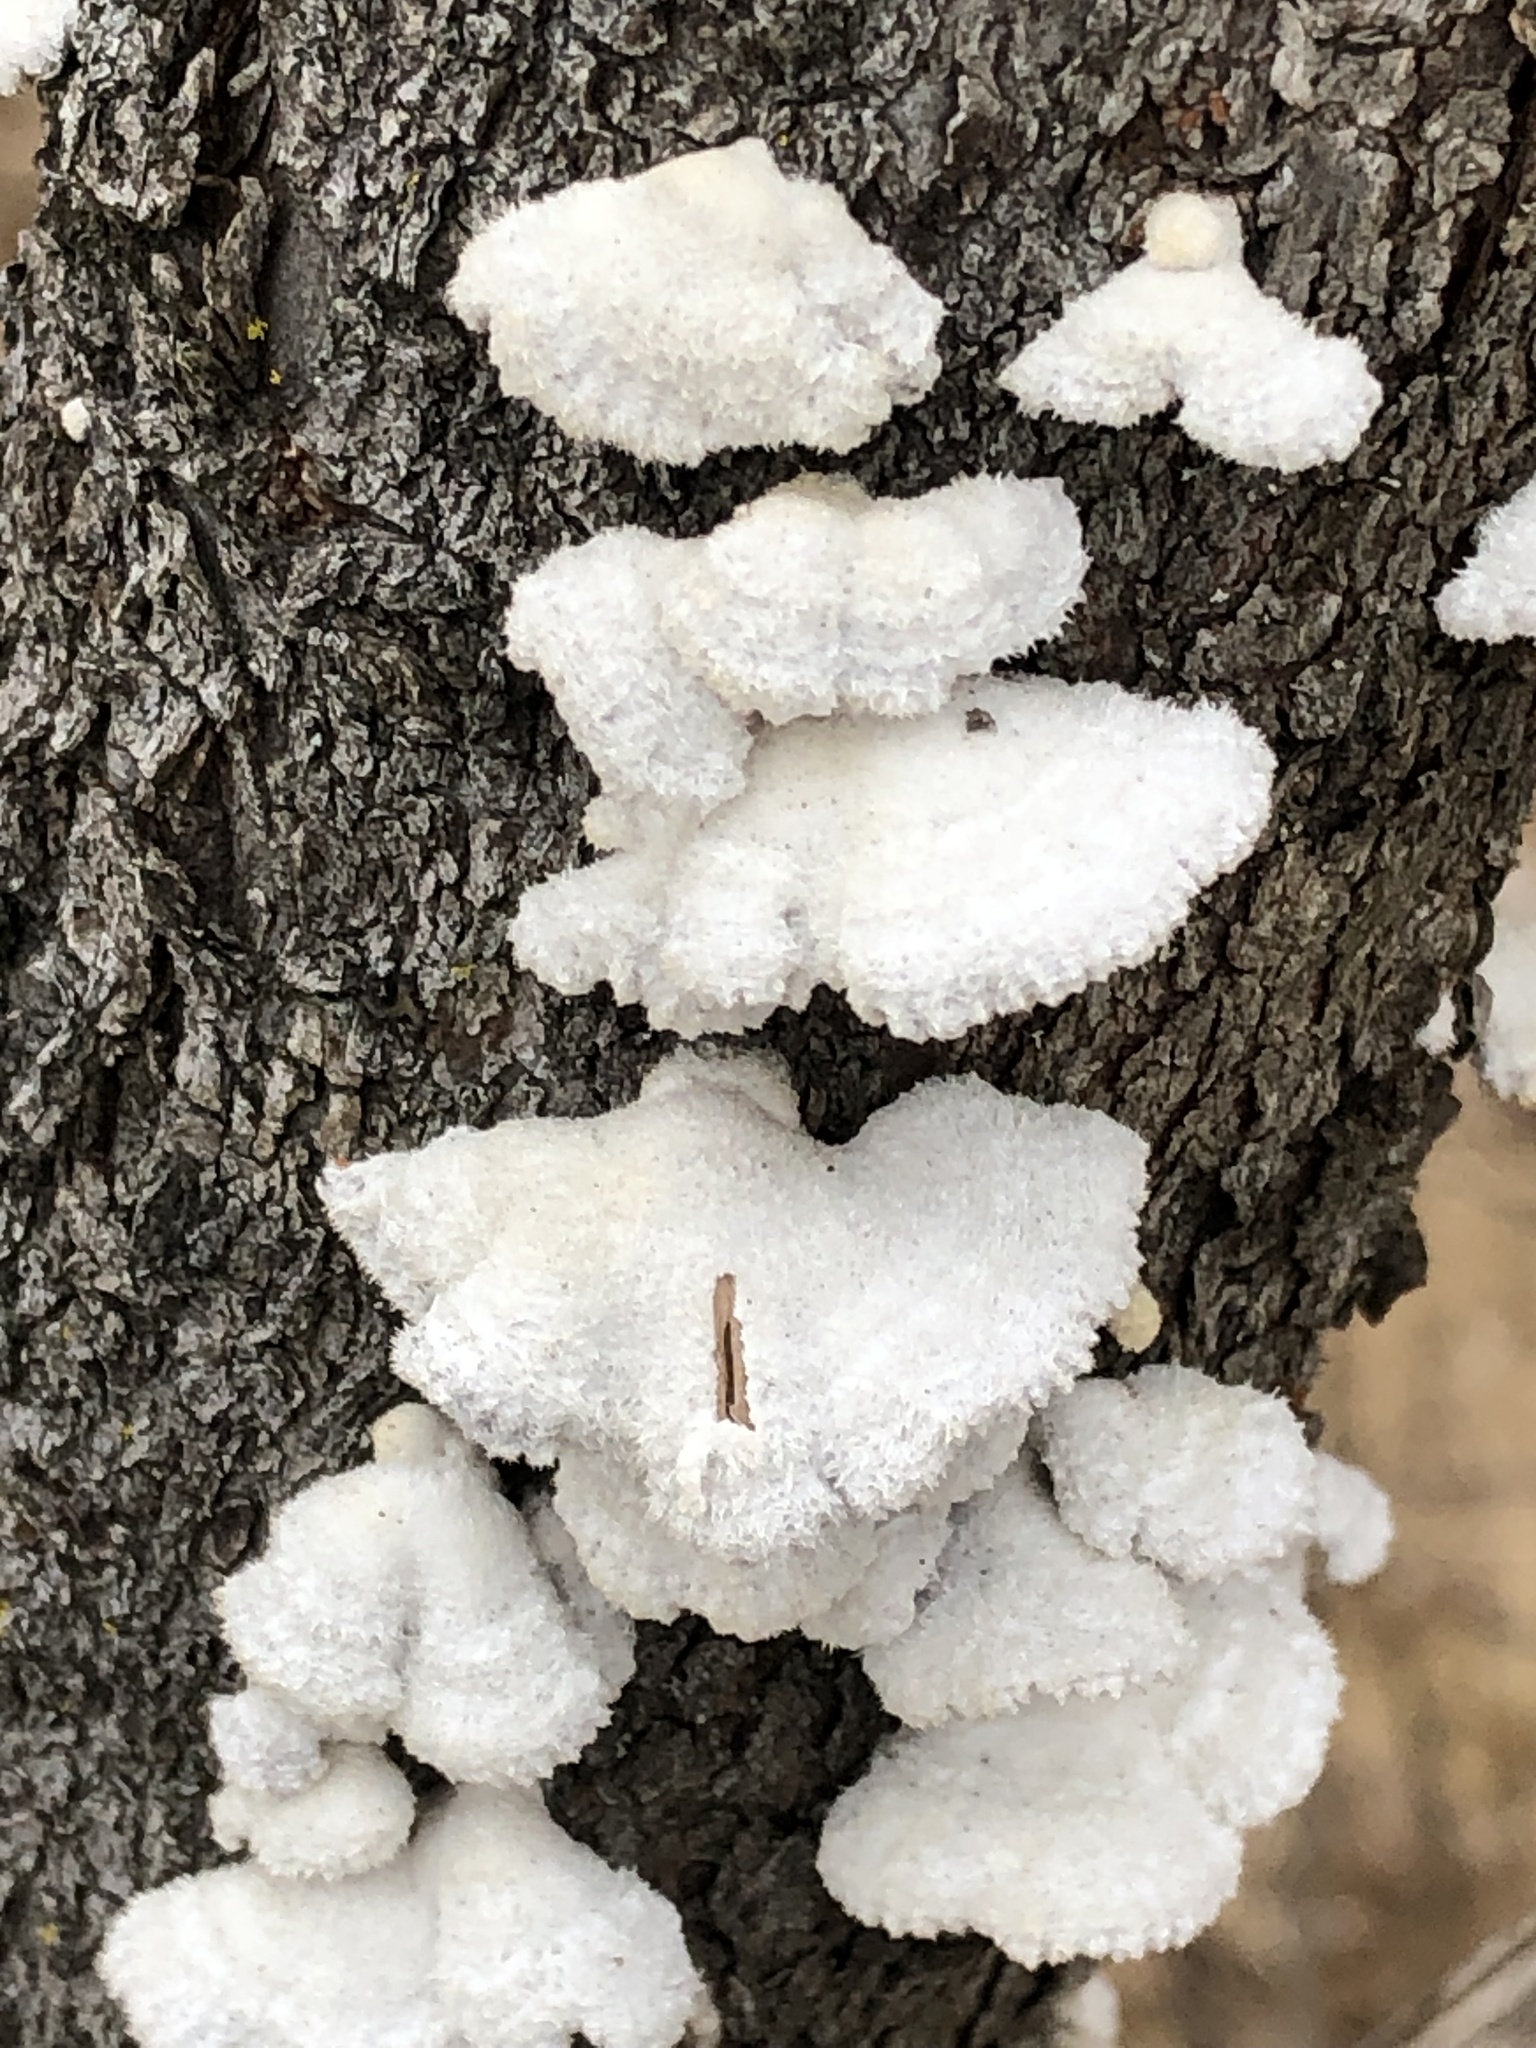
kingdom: Fungi
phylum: Basidiomycota
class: Agaricomycetes
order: Agaricales
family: Schizophyllaceae
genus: Schizophyllum
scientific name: Schizophyllum commune
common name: Common porecrust
